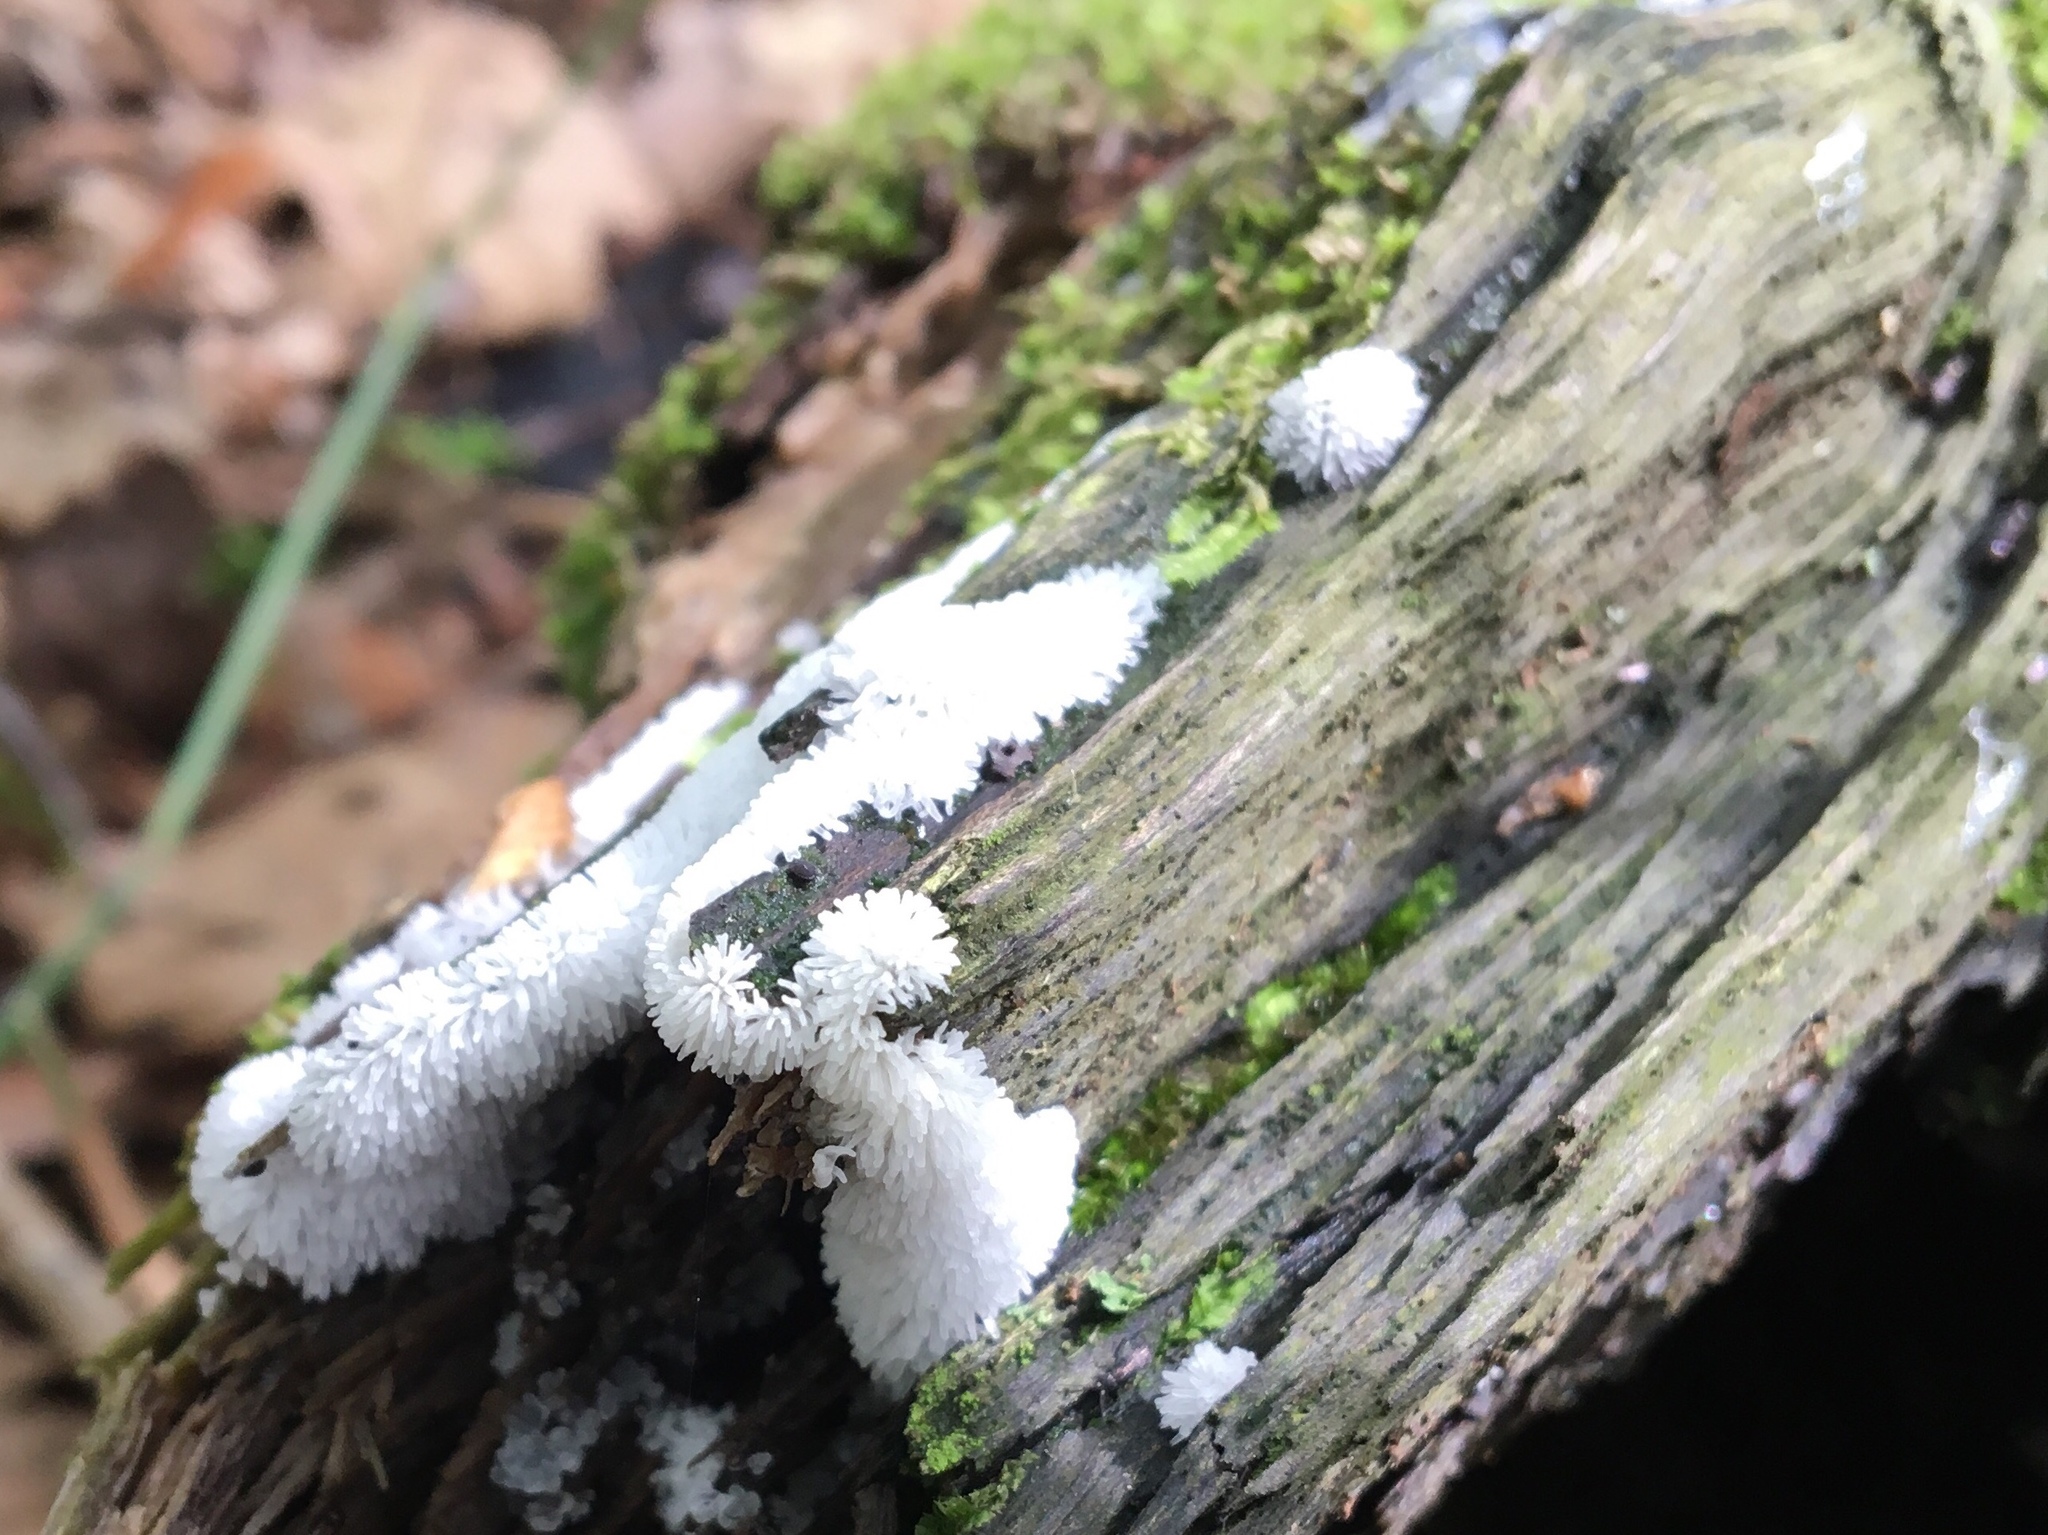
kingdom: Protozoa
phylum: Mycetozoa
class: Protosteliomycetes
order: Ceratiomyxales
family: Ceratiomyxaceae
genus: Ceratiomyxa
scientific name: Ceratiomyxa fruticulosa
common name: Honeycomb coral slime mold
